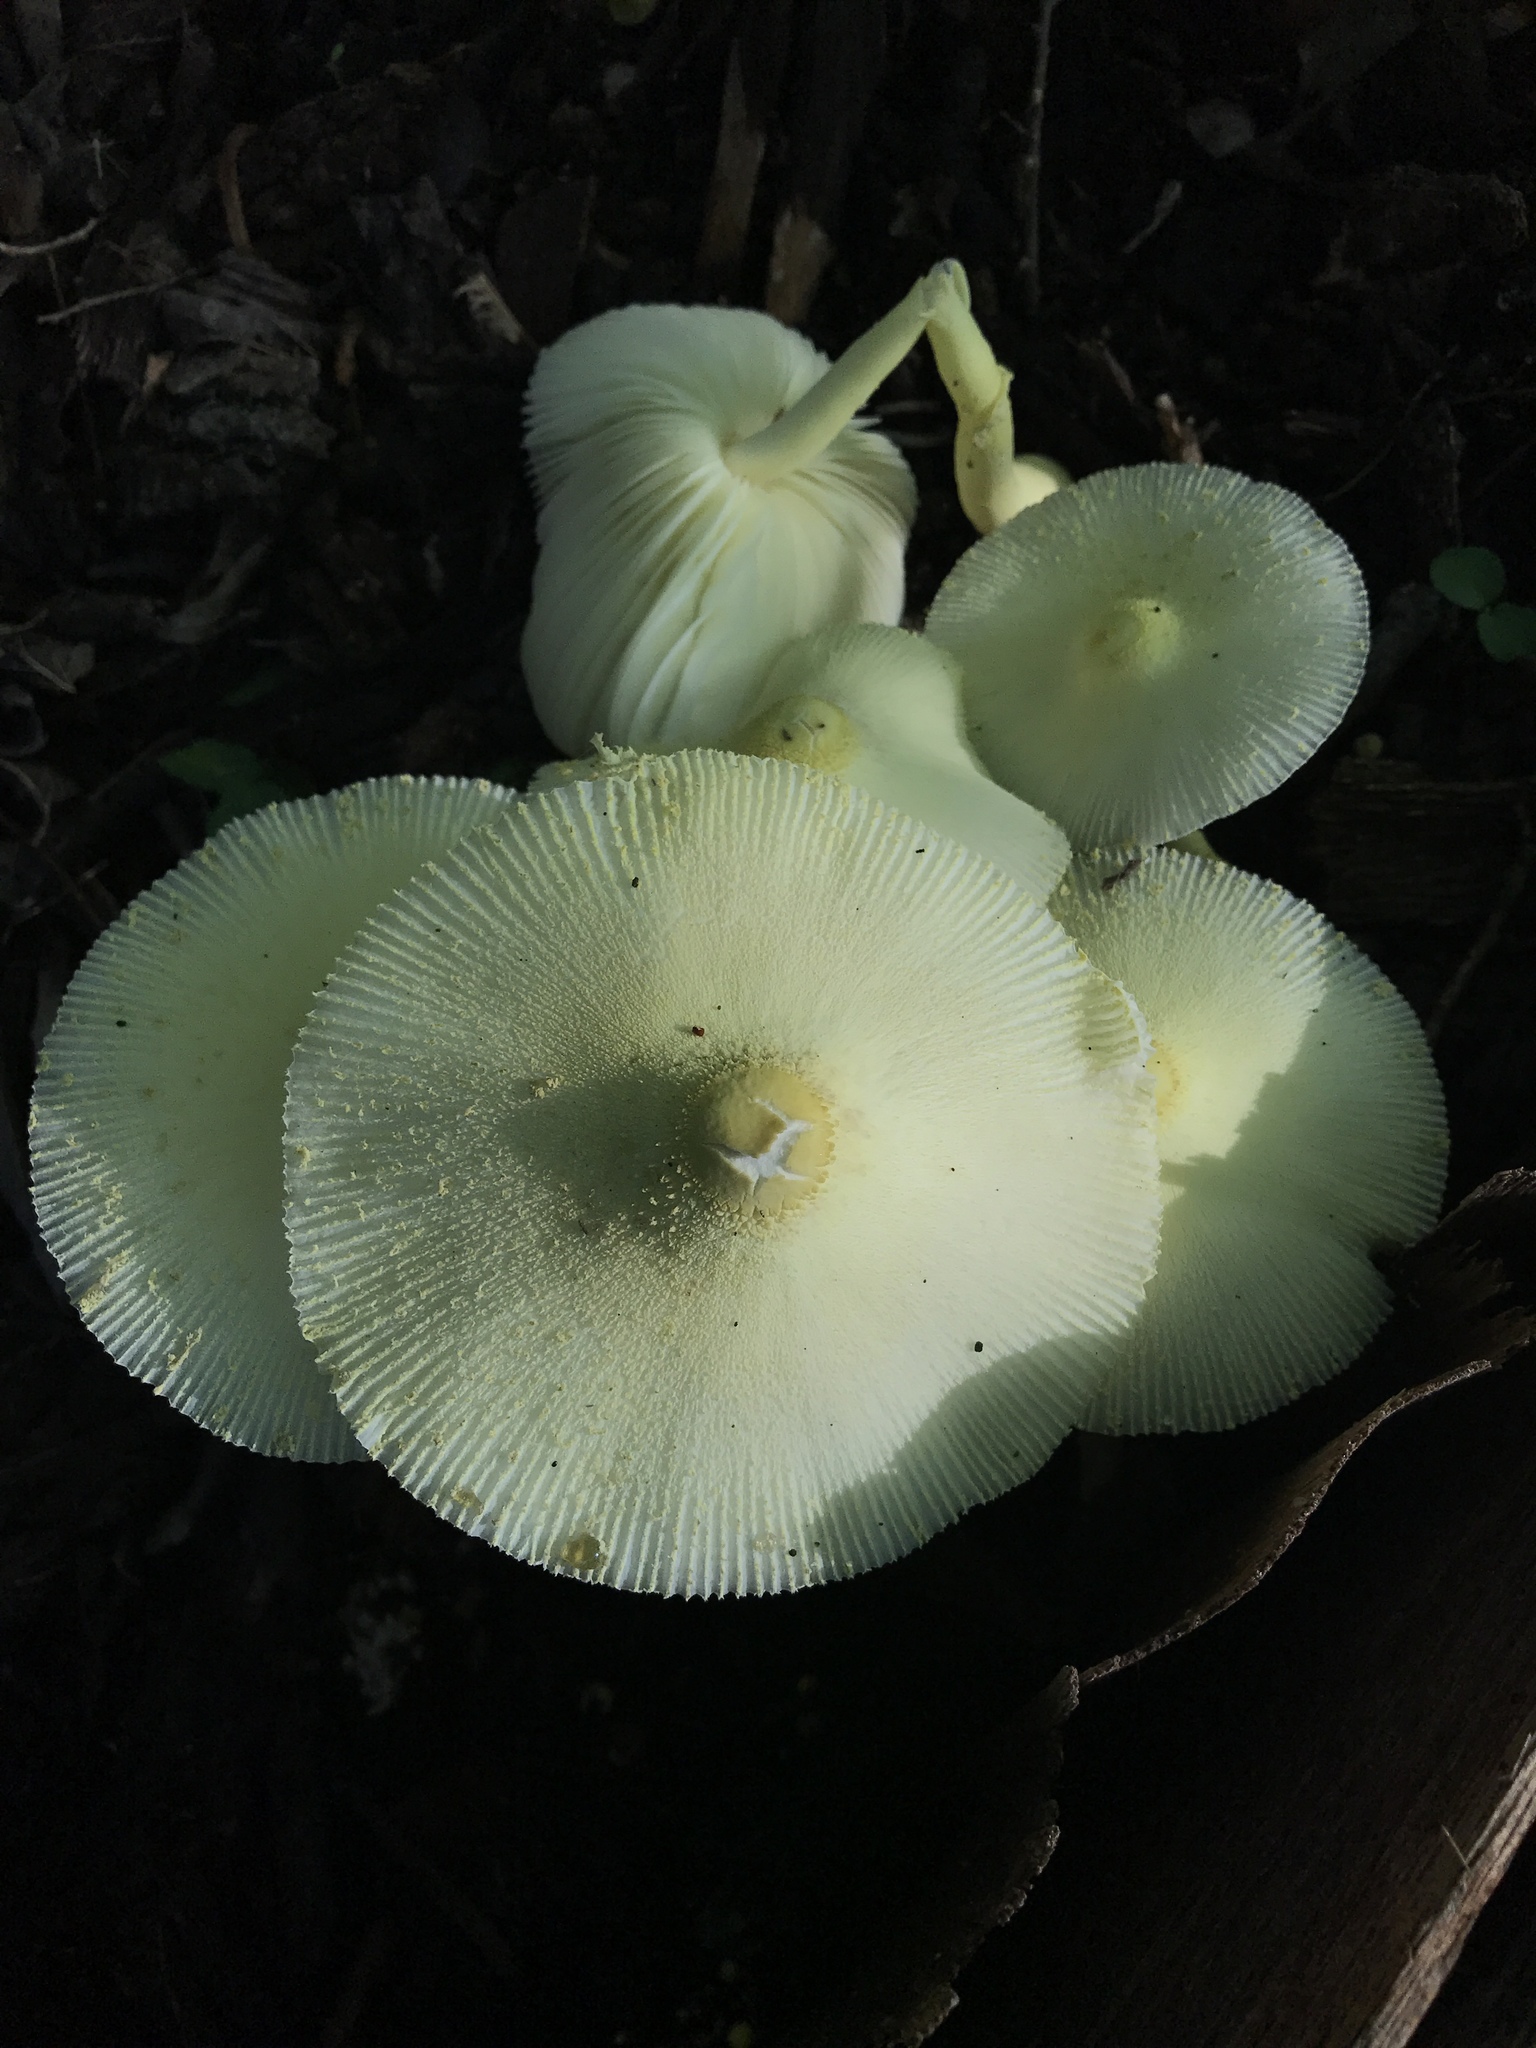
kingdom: Fungi
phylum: Basidiomycota
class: Agaricomycetes
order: Agaricales
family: Agaricaceae
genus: Leucocoprinus
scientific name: Leucocoprinus birnbaumii
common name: Plantpot dapperling
